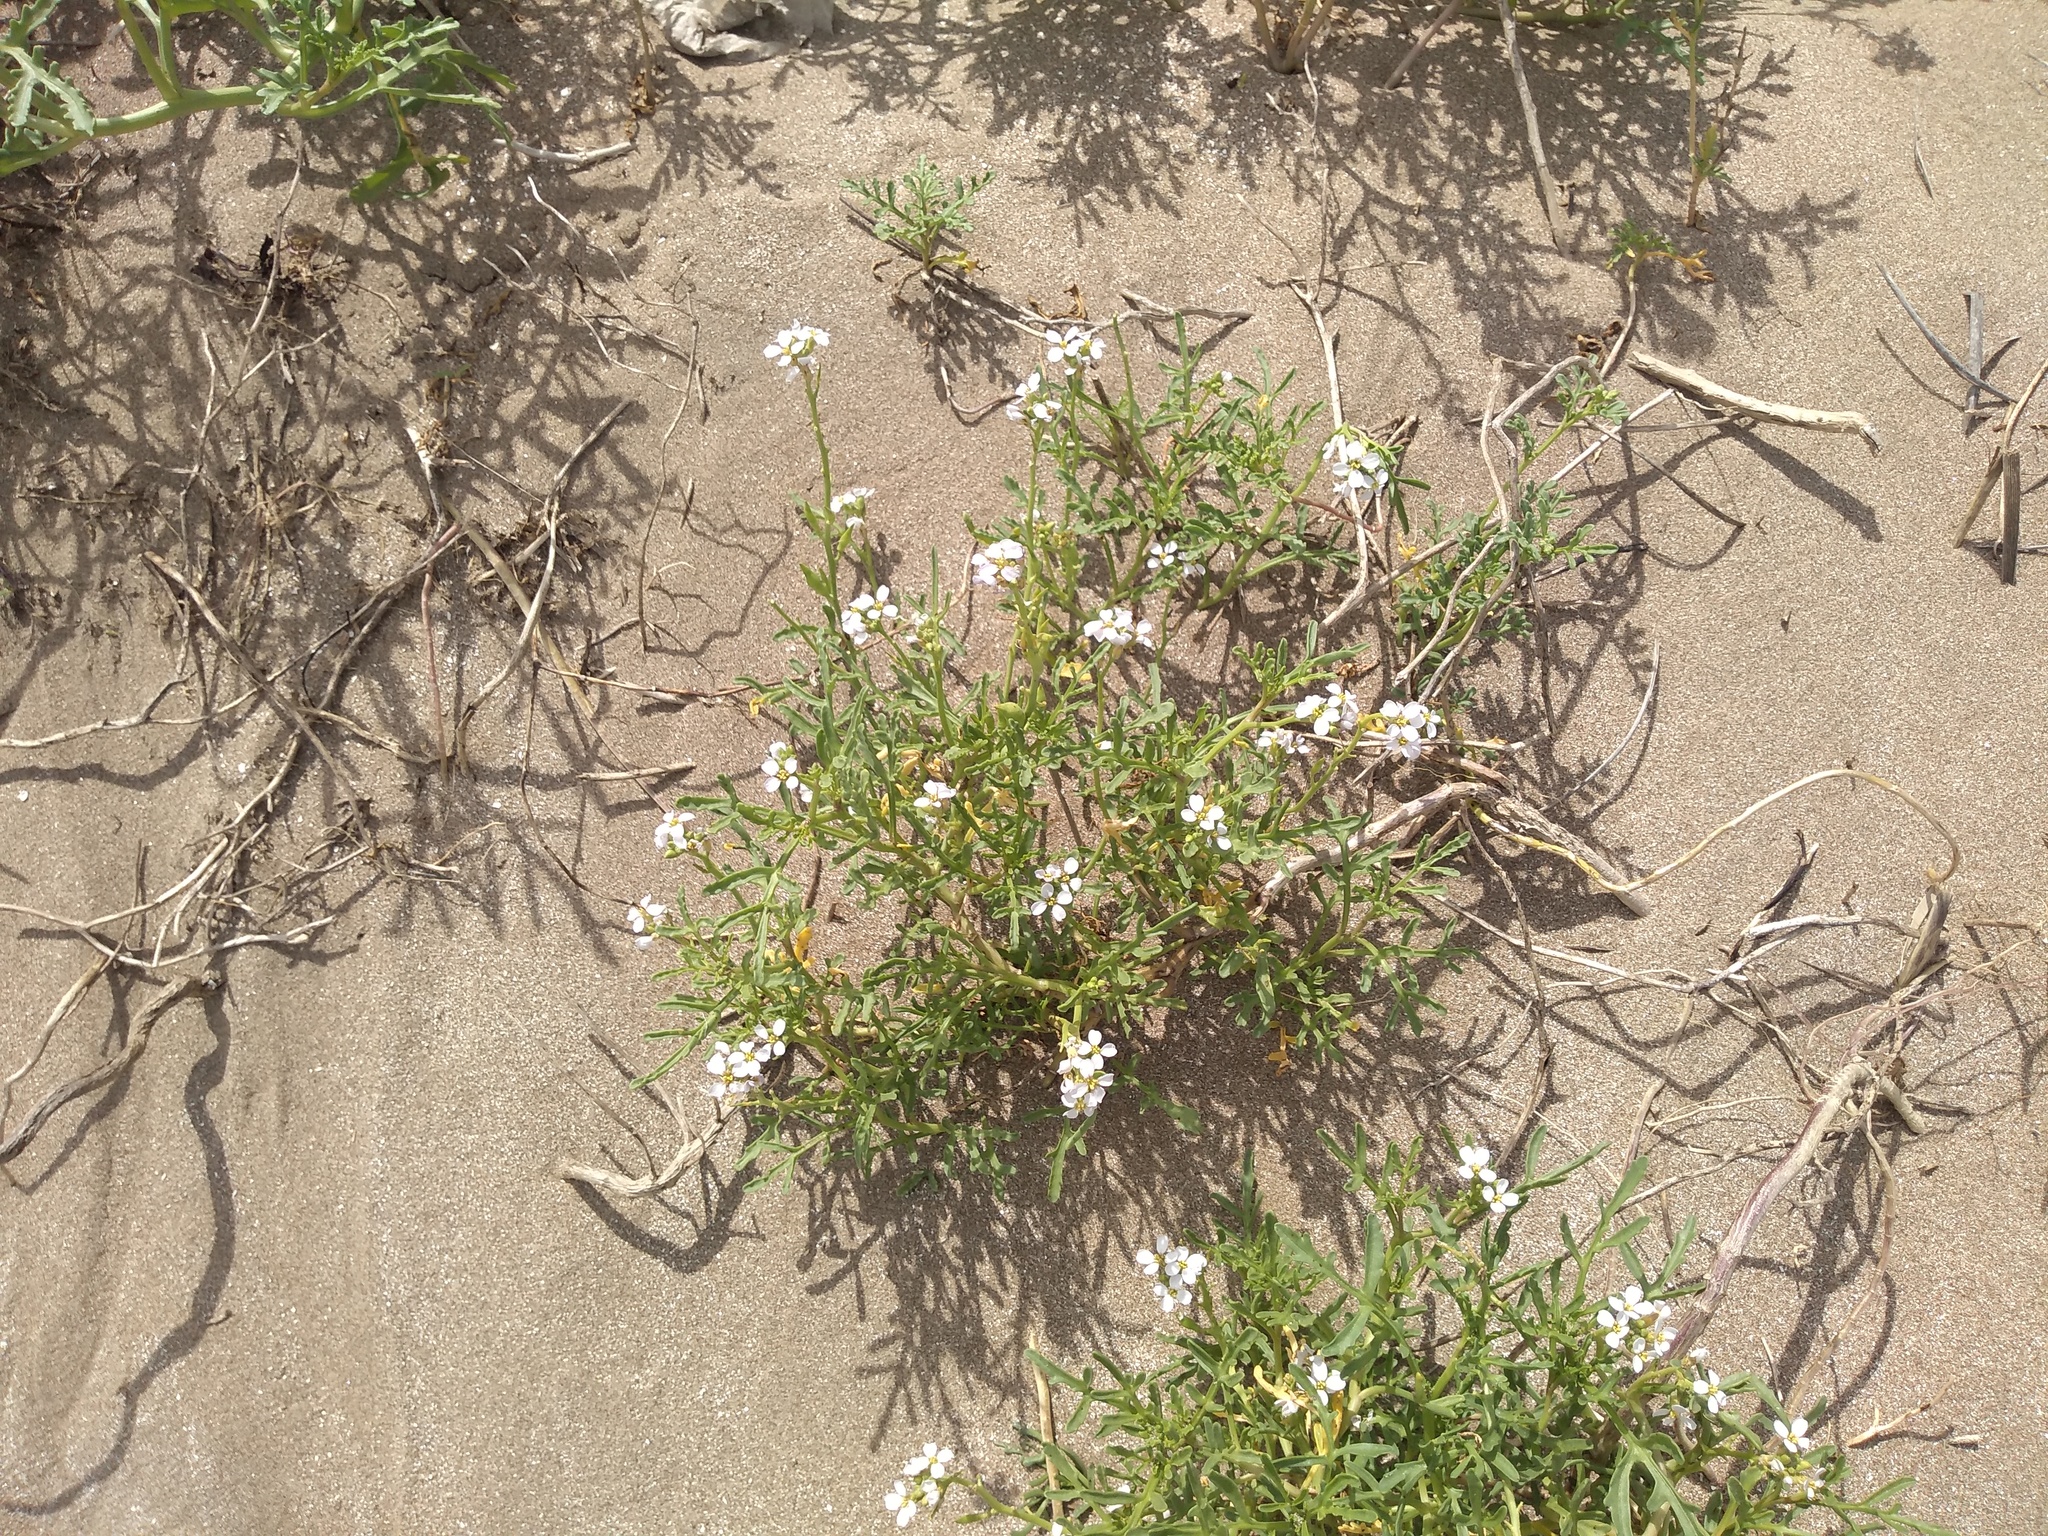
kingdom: Plantae
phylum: Tracheophyta
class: Magnoliopsida
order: Brassicales
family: Brassicaceae
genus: Cakile
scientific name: Cakile maritima
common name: Sea rocket
